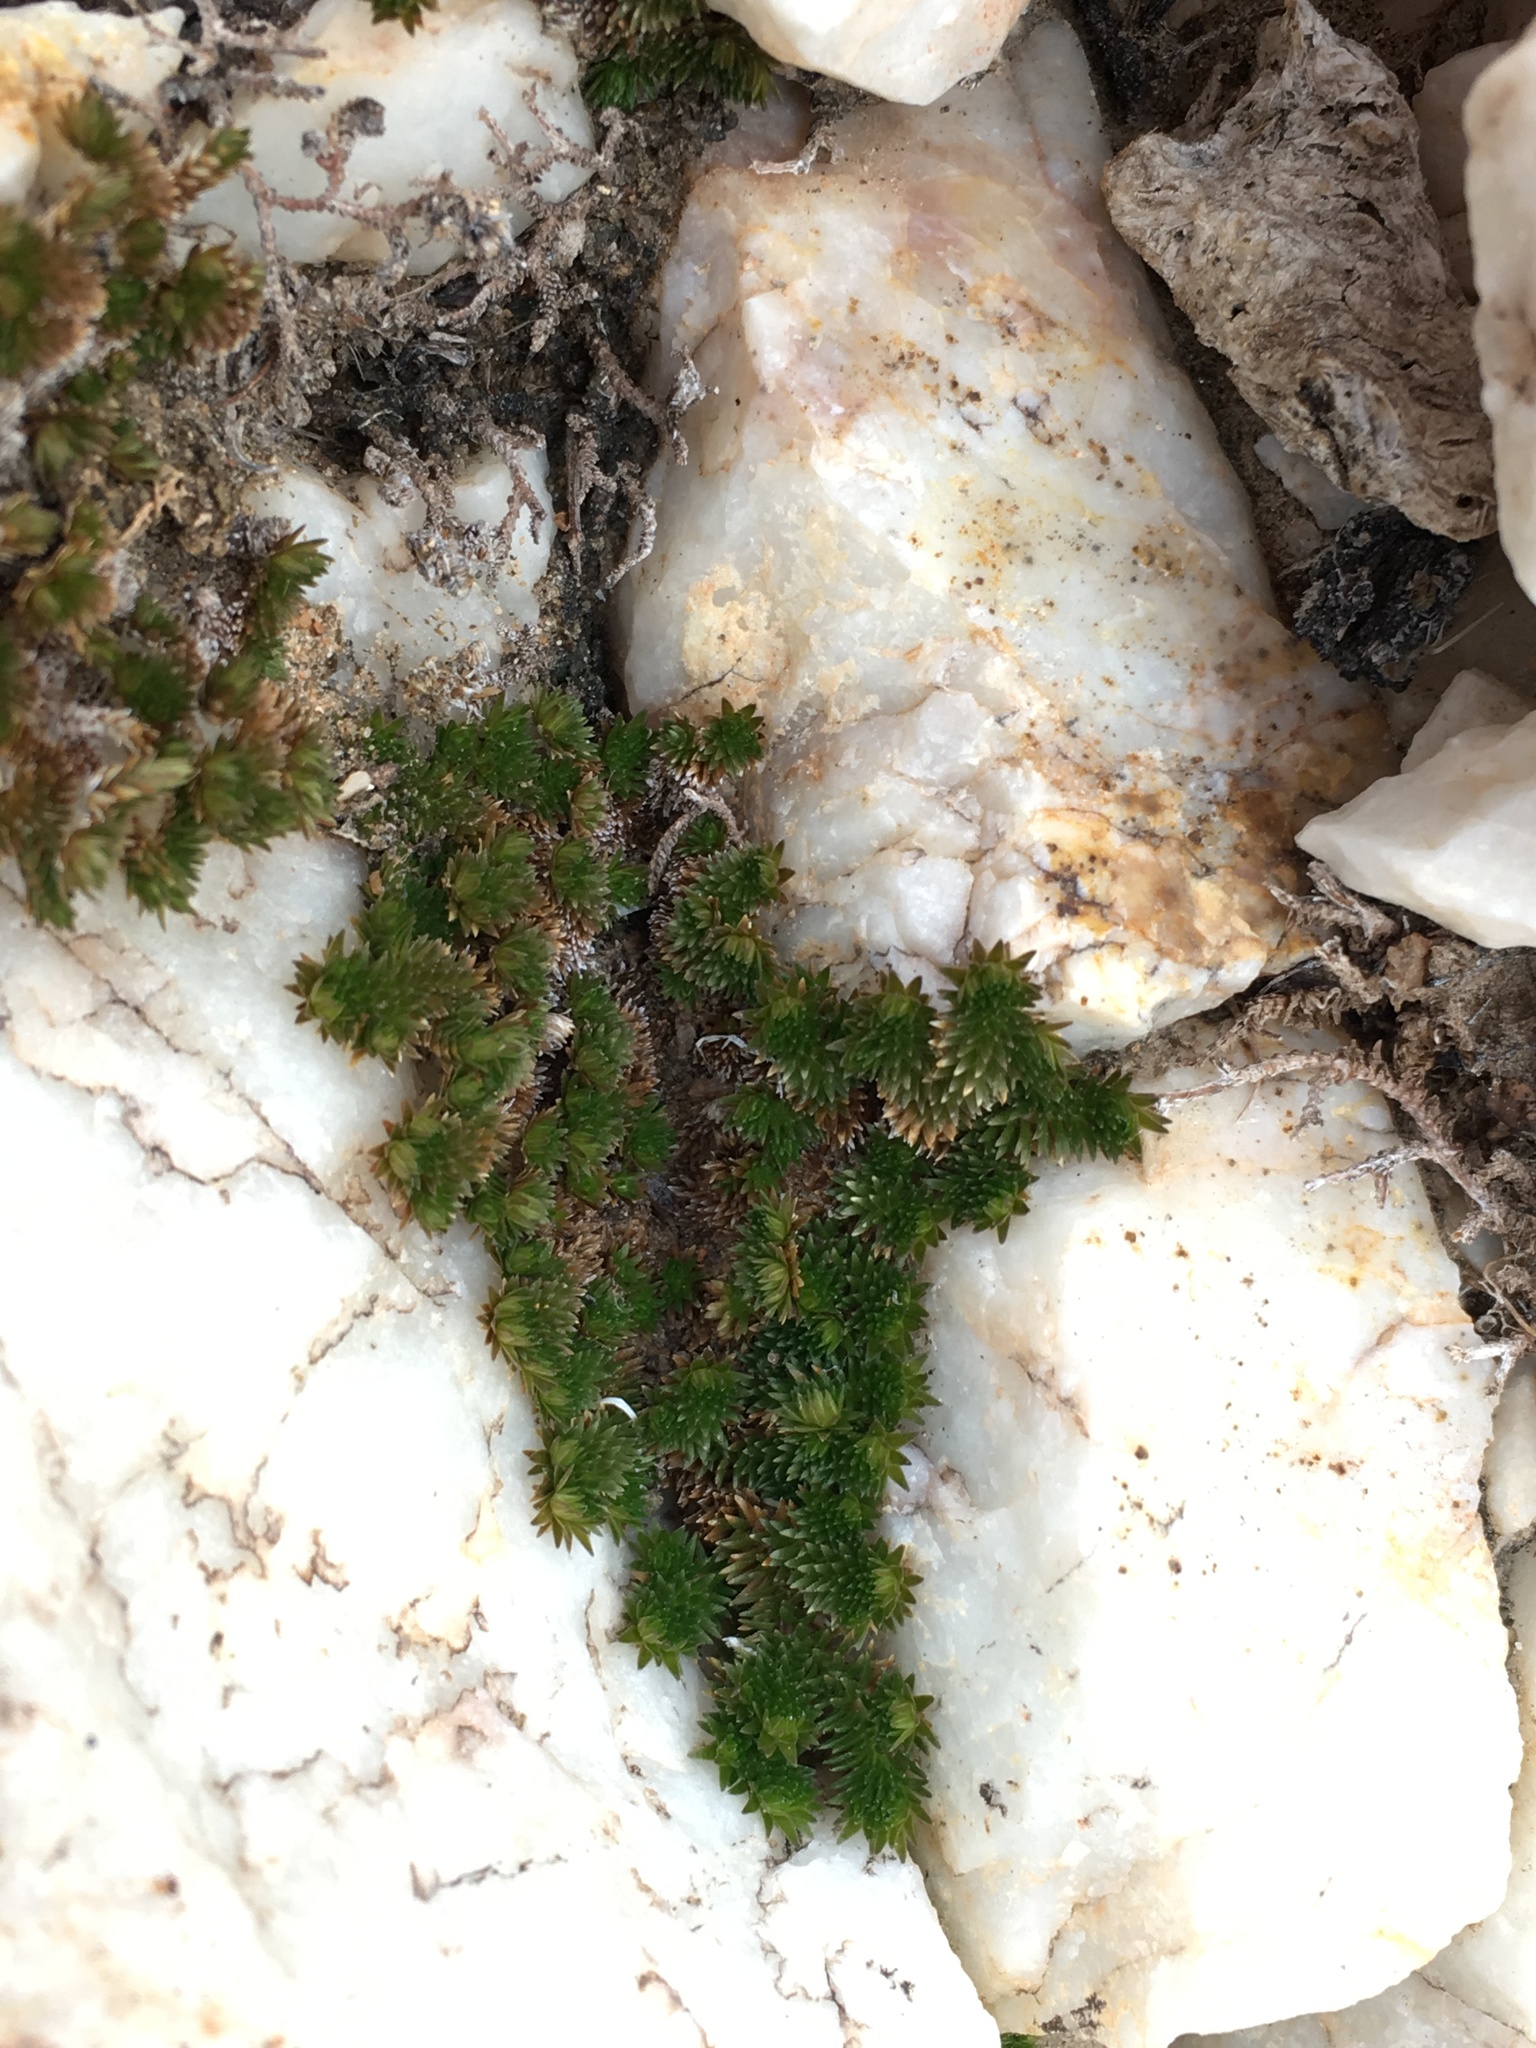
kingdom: Plantae
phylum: Tracheophyta
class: Lycopodiopsida
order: Selaginellales
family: Selaginellaceae
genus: Selaginella
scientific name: Selaginella eremophila
